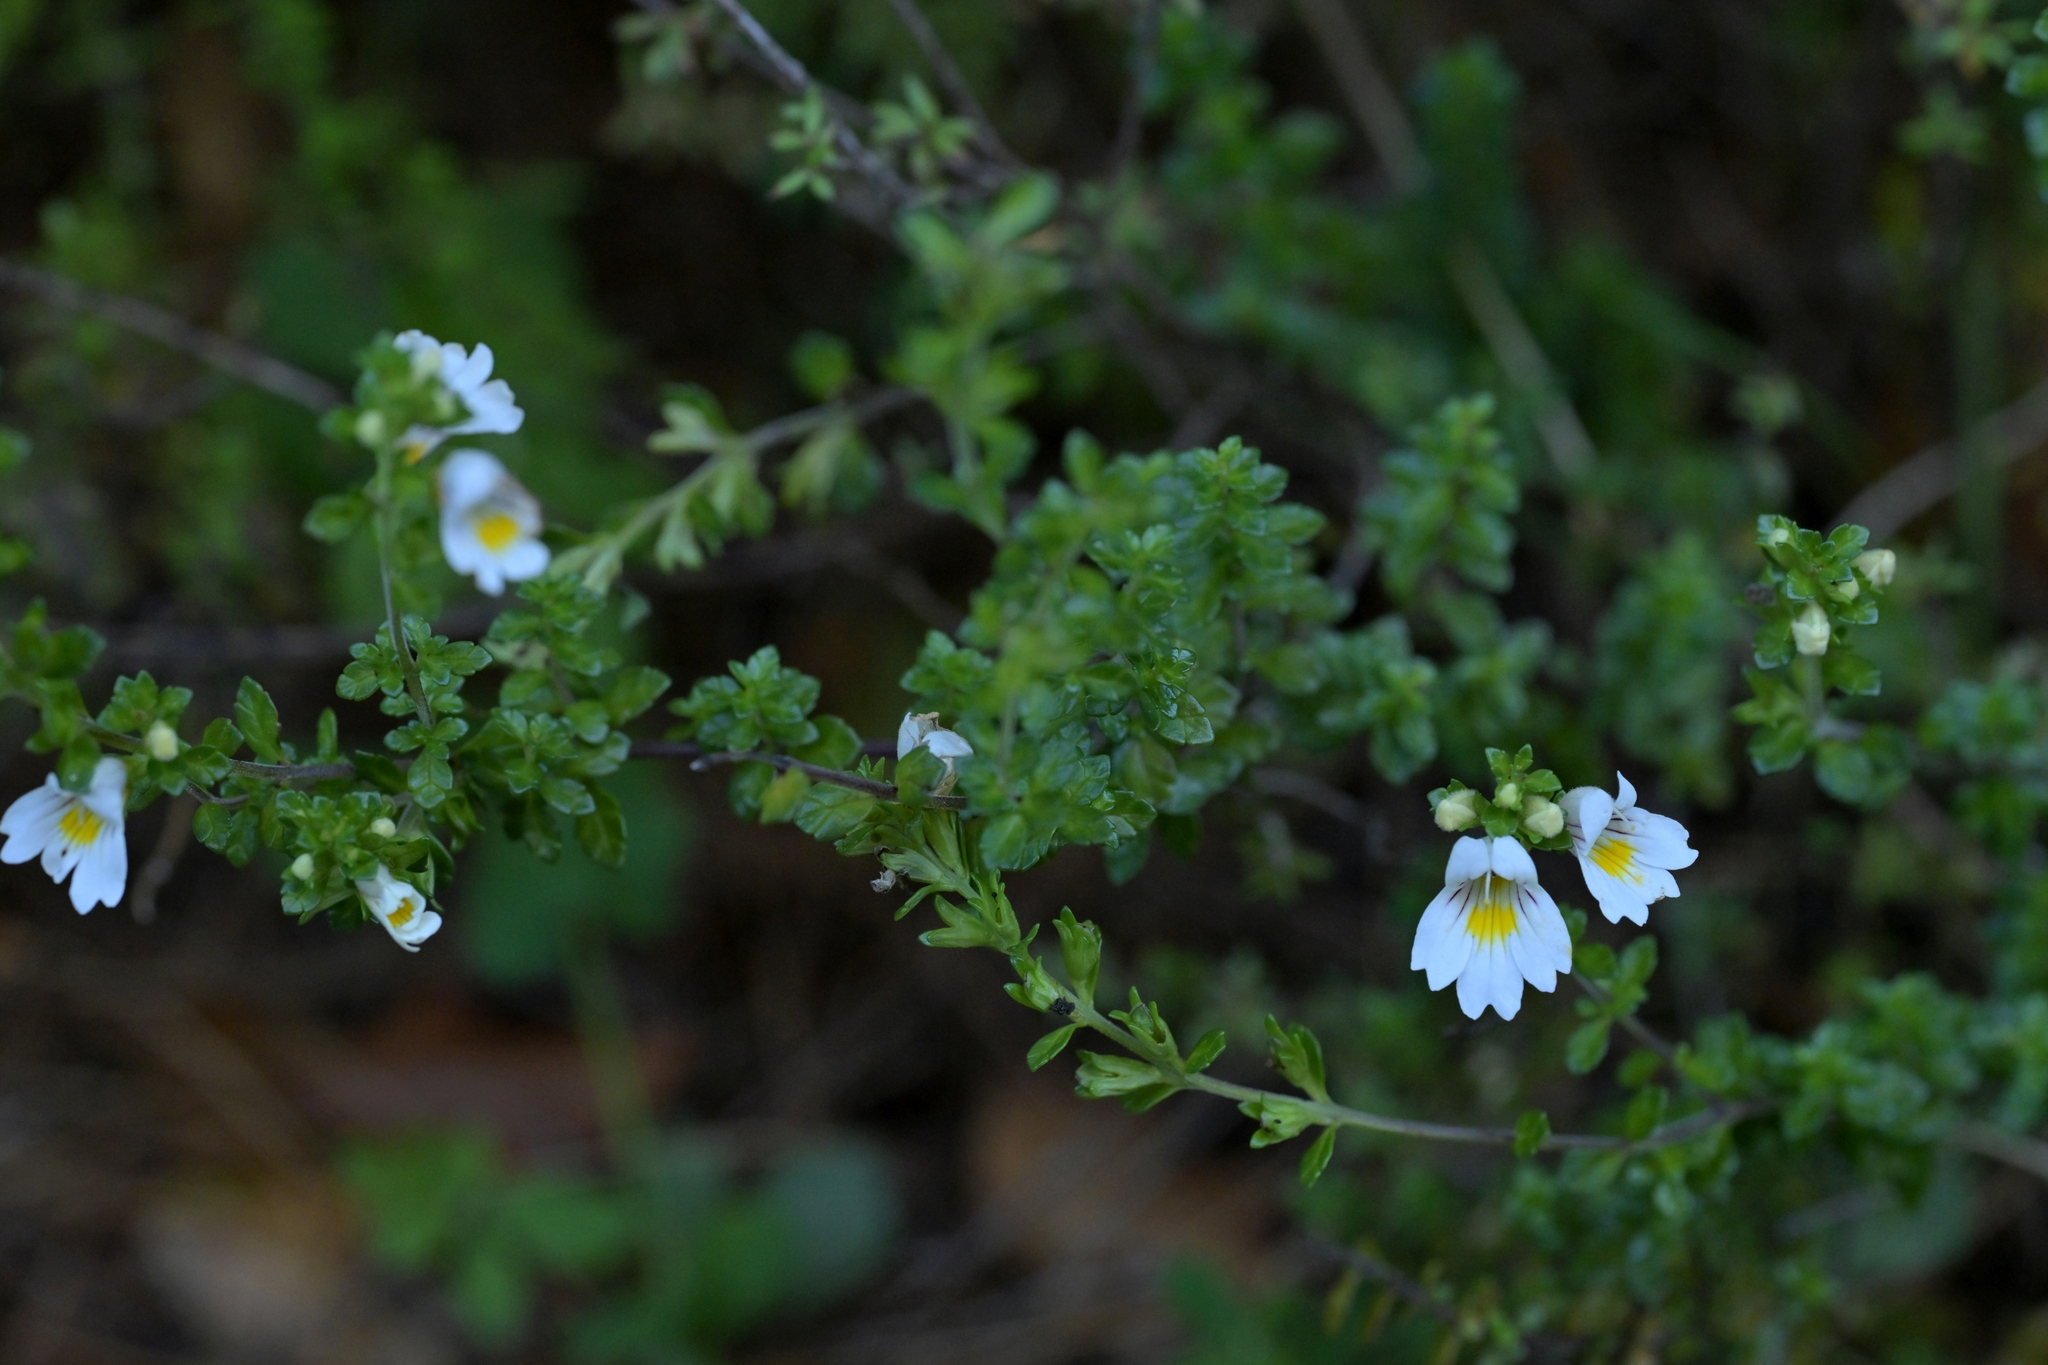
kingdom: Plantae
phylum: Tracheophyta
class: Magnoliopsida
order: Lamiales
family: Orobanchaceae
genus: Euphrasia
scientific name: Euphrasia cuneata
